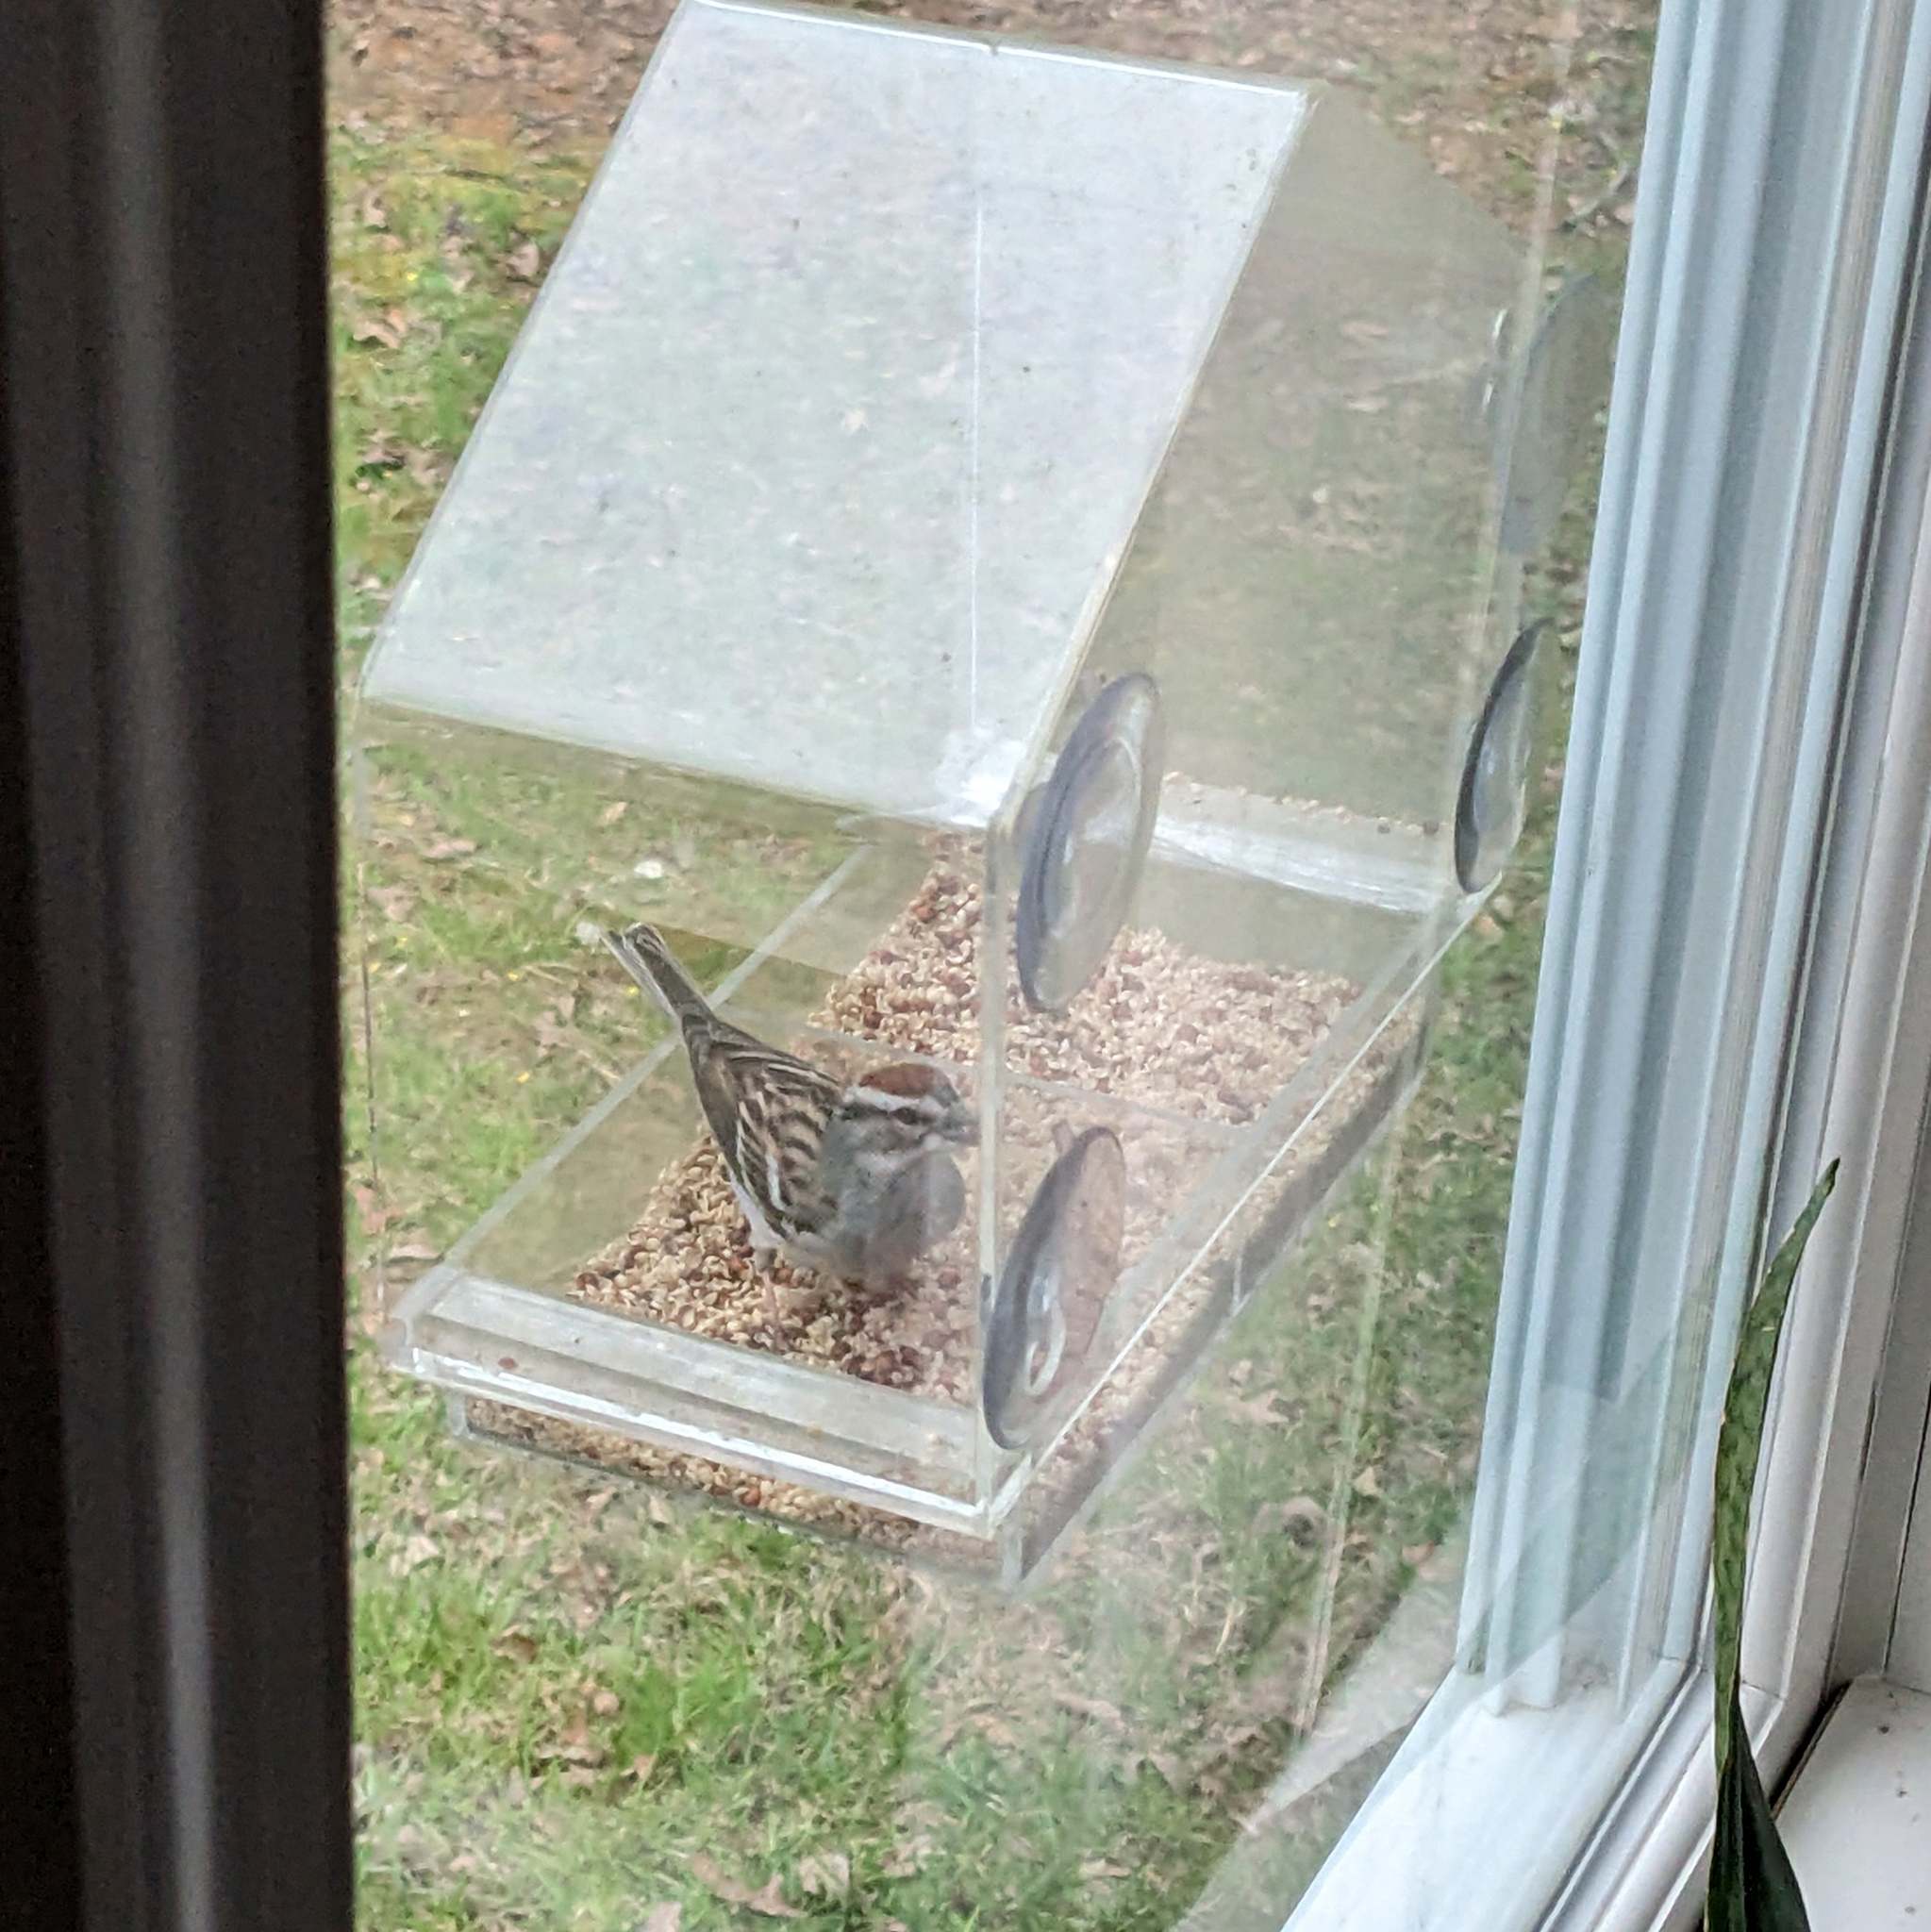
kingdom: Animalia
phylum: Chordata
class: Aves
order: Passeriformes
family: Passerellidae
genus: Spizella
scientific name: Spizella passerina
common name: Chipping sparrow
